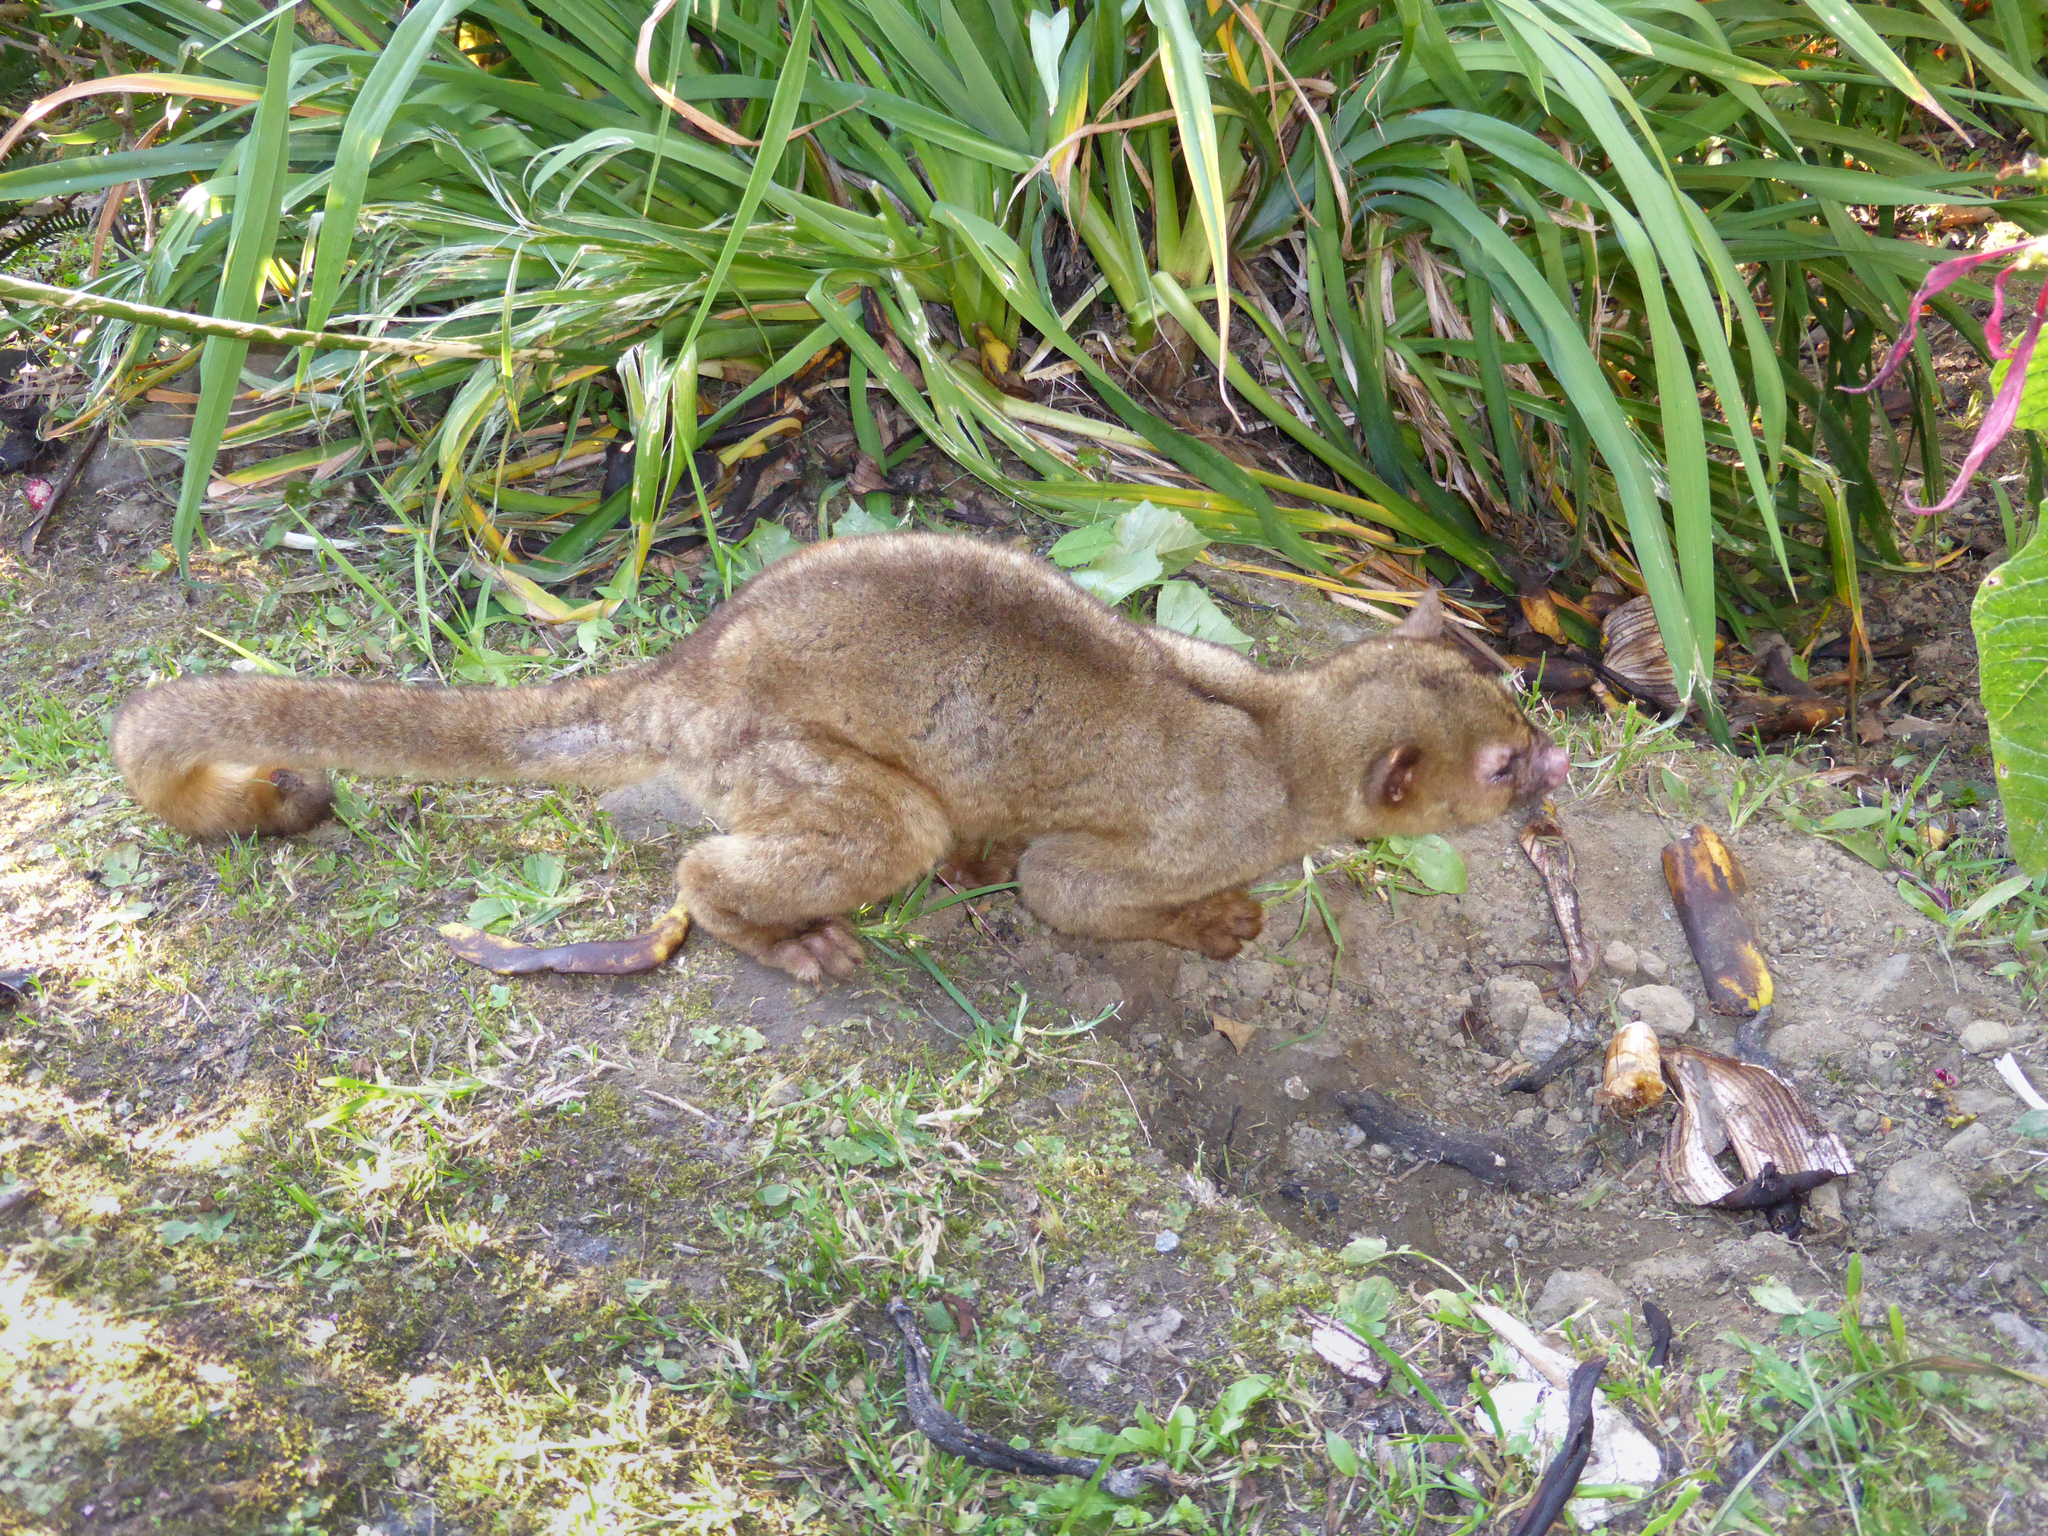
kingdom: Animalia
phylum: Chordata
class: Mammalia
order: Carnivora
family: Procyonidae
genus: Potos
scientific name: Potos flavus
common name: Kinkajou
